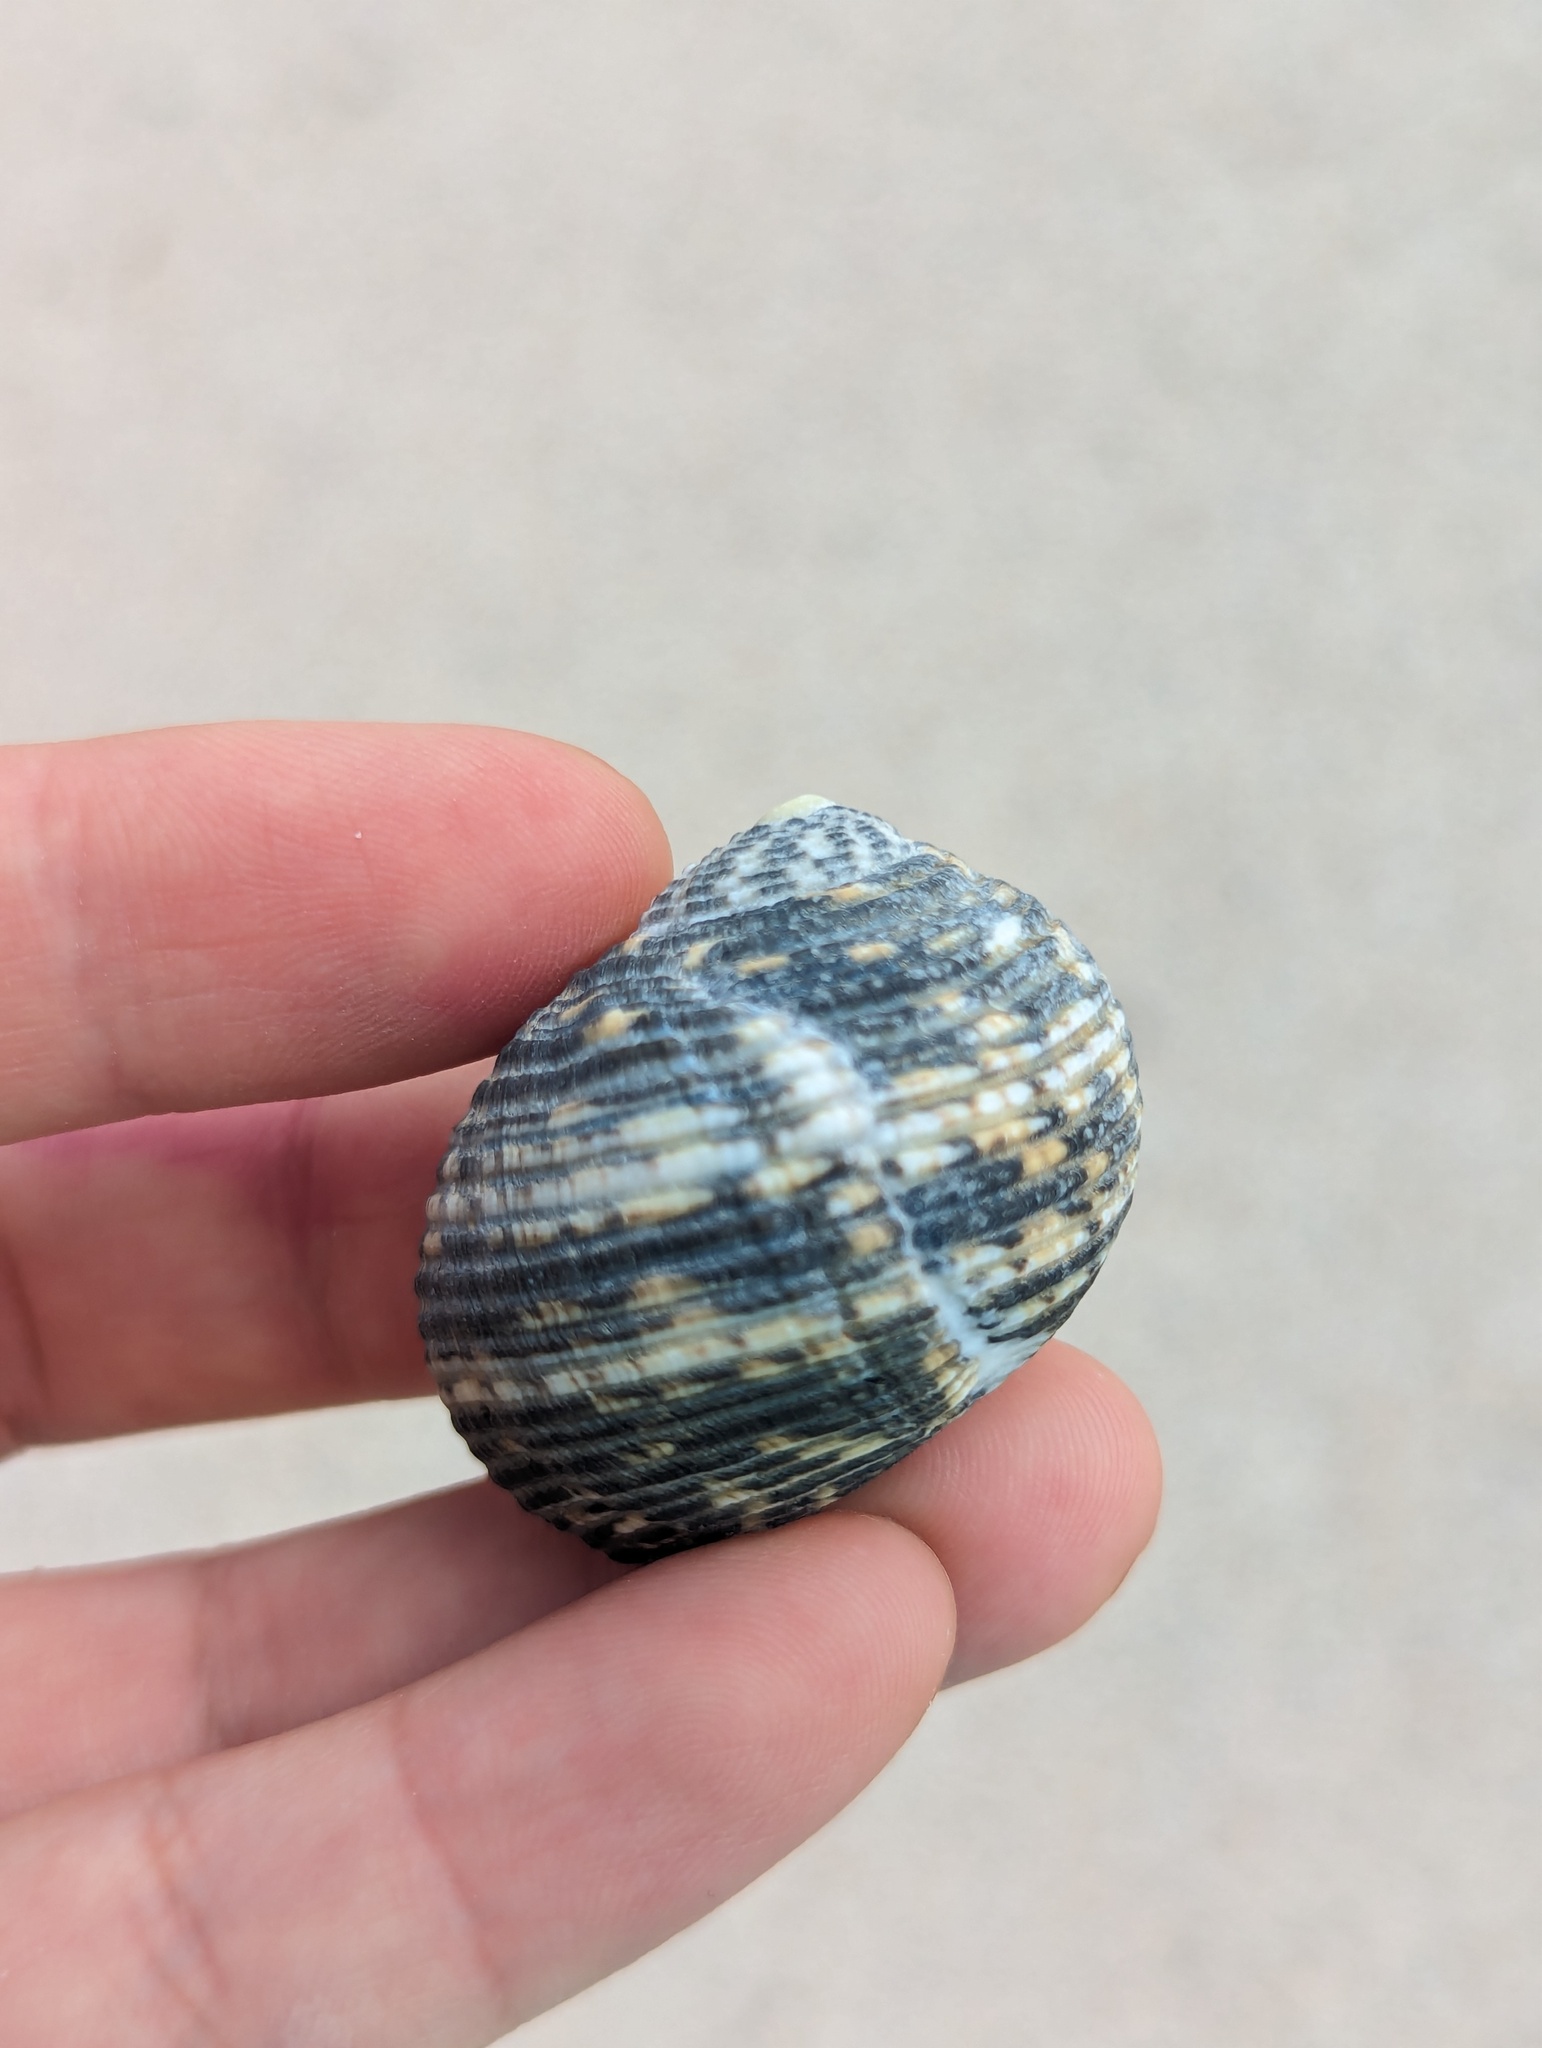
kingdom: Animalia
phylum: Mollusca
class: Gastropoda
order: Cycloneritida
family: Neritidae
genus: Nerita
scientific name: Nerita scabricosta
